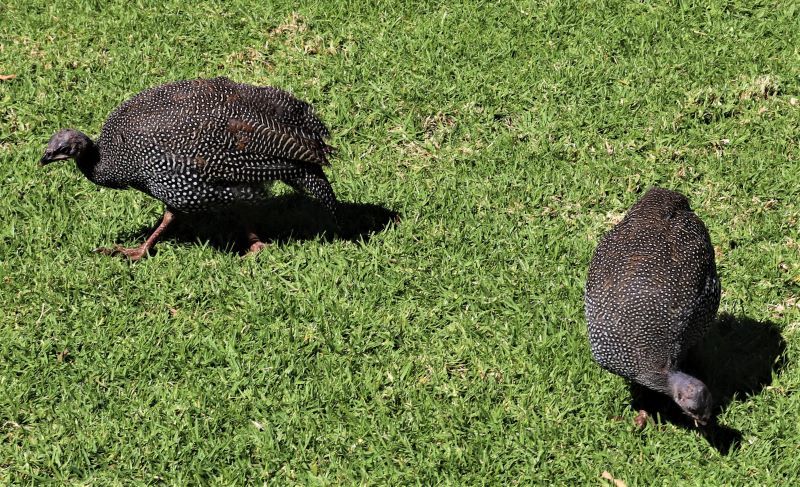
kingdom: Animalia
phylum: Chordata
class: Aves
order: Galliformes
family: Numididae
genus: Numida
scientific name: Numida meleagris
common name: Helmeted guineafowl
